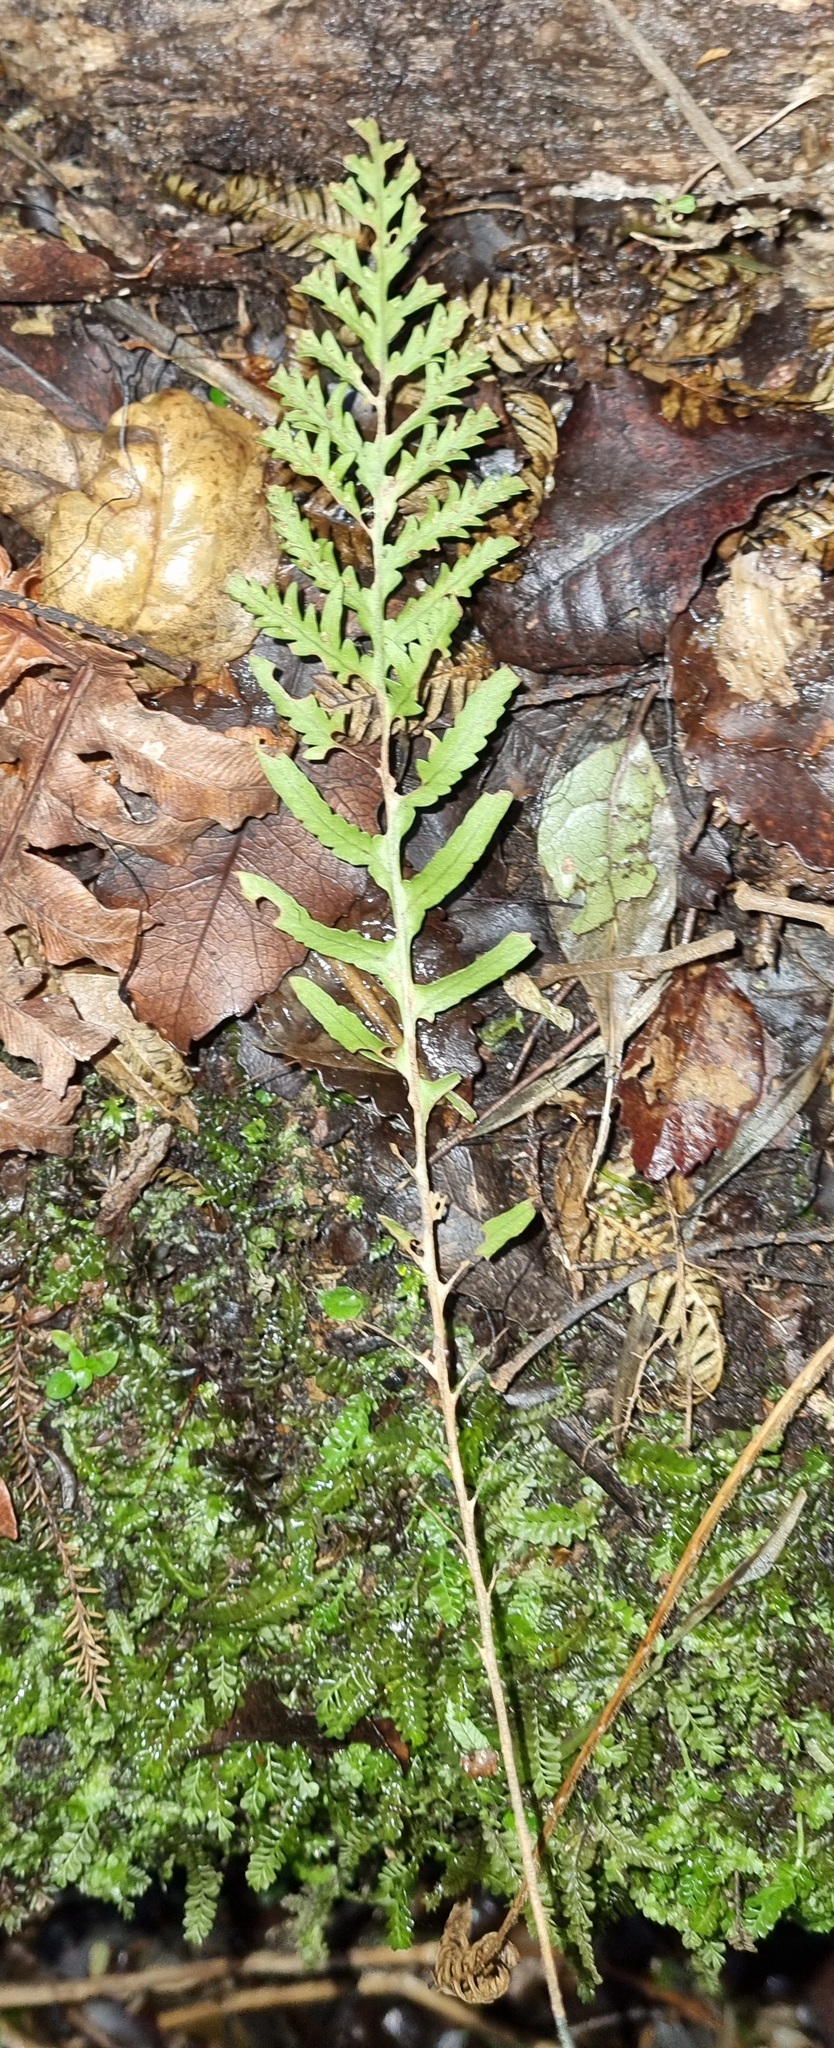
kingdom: Plantae
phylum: Tracheophyta
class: Polypodiopsida
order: Polypodiales
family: Polypodiaceae
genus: Notogrammitis
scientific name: Notogrammitis heterophylla
